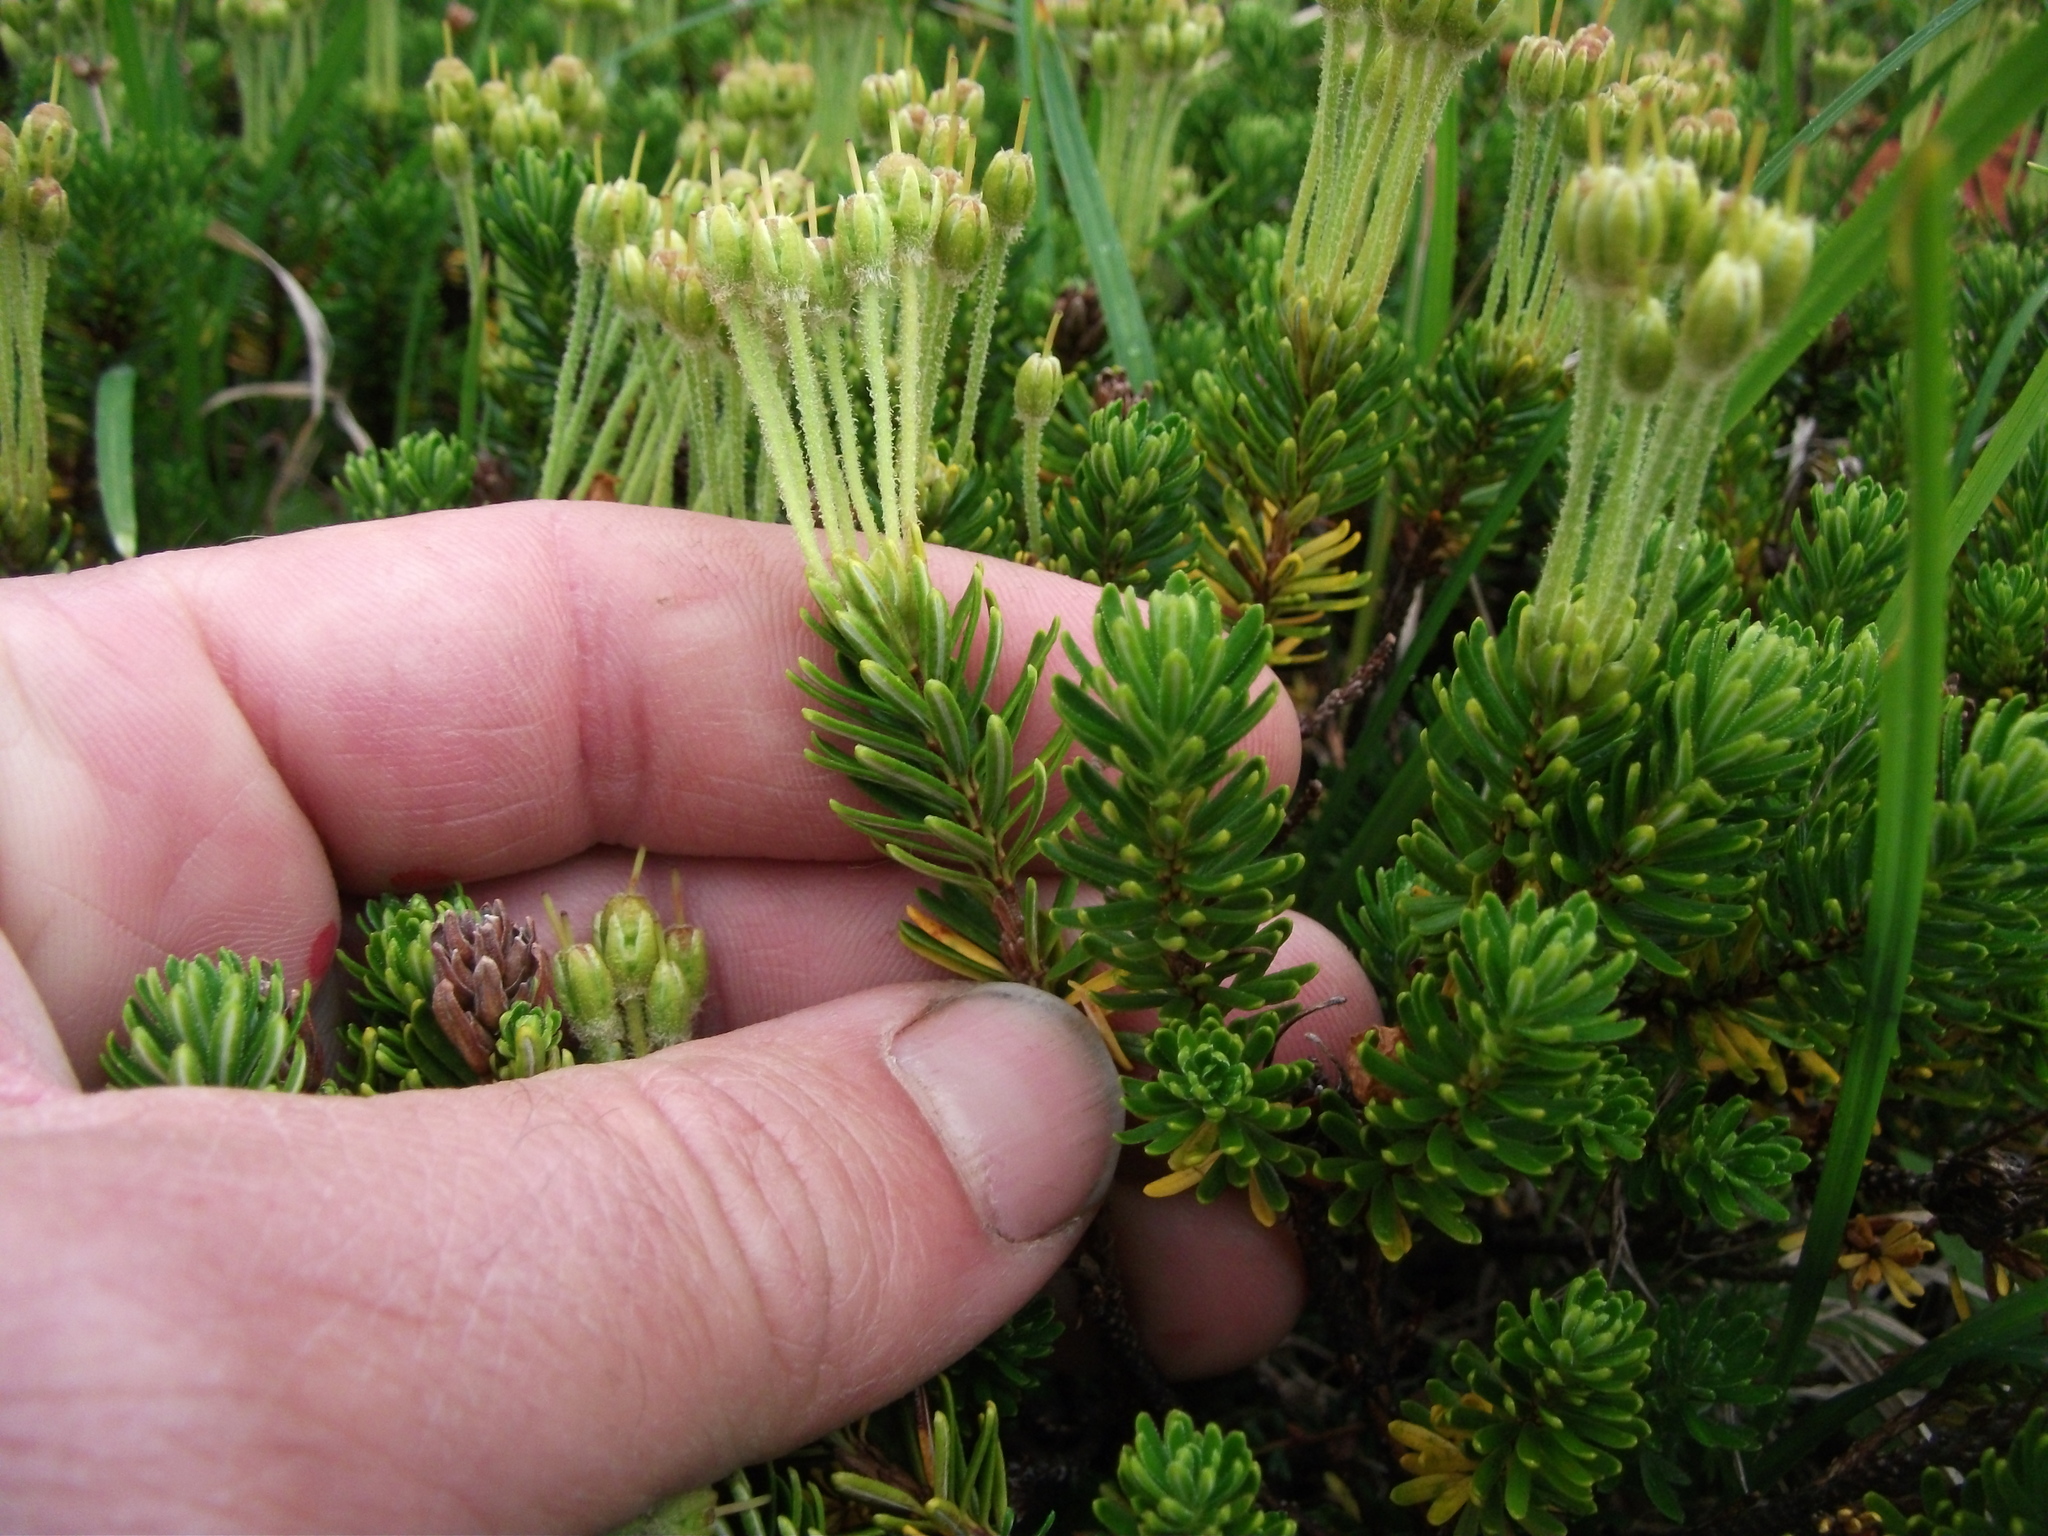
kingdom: Plantae
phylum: Tracheophyta
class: Magnoliopsida
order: Ericales
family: Ericaceae
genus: Phyllodoce
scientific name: Phyllodoce aleutica
